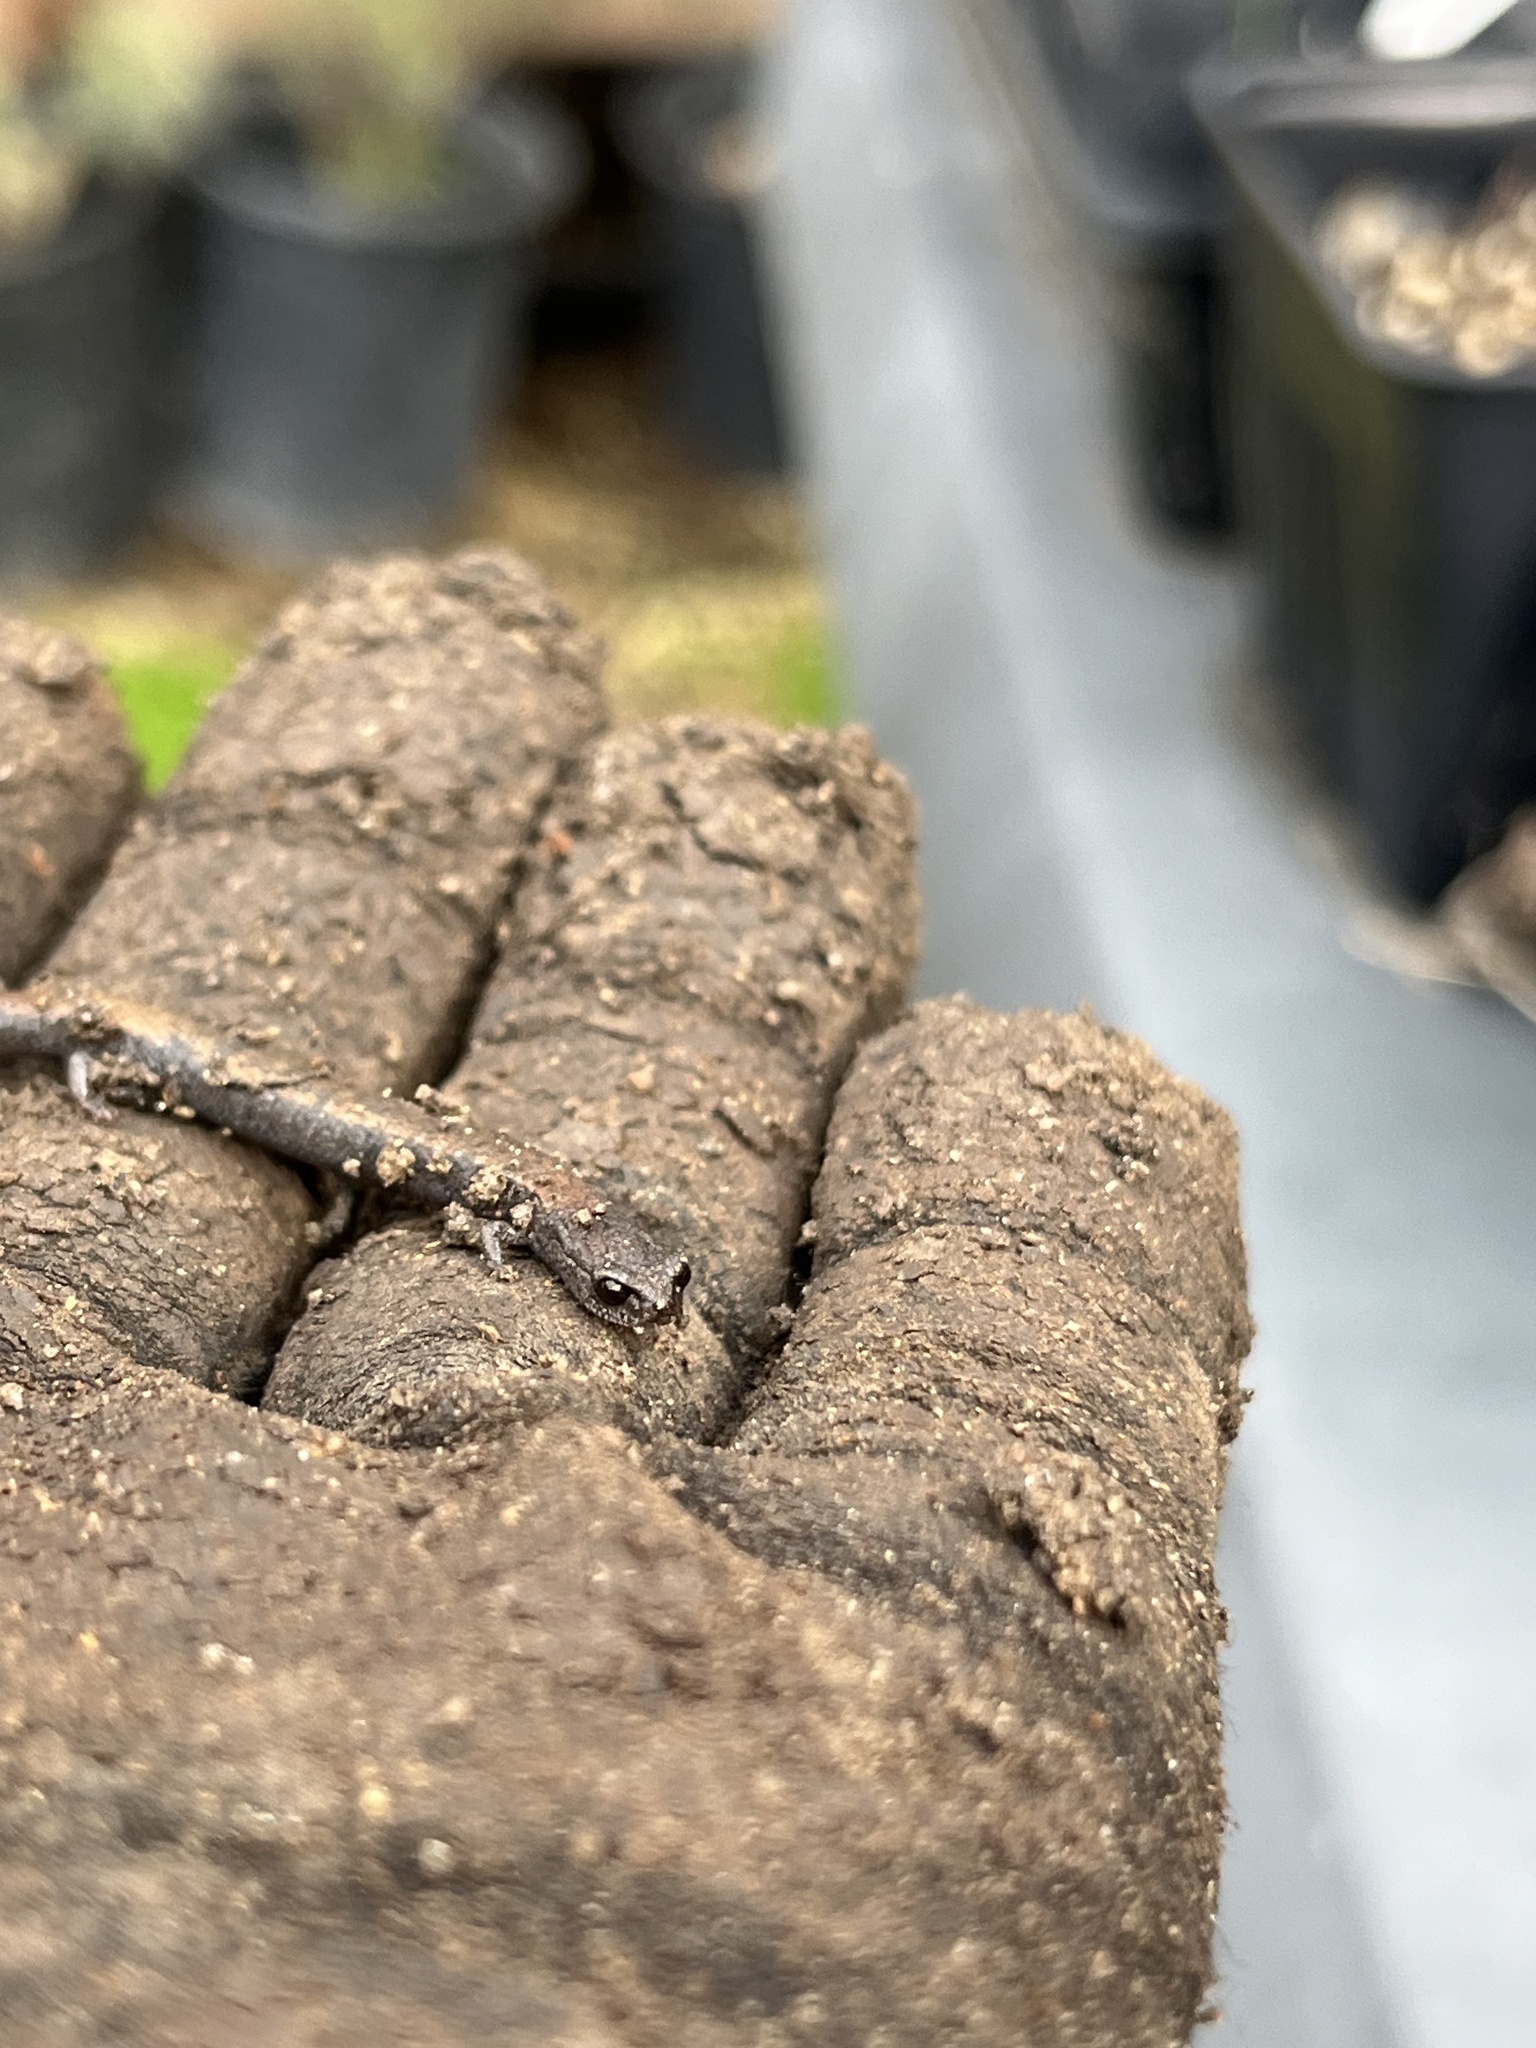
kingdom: Animalia
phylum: Chordata
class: Amphibia
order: Caudata
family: Plethodontidae
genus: Batrachoseps
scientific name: Batrachoseps nigriventris
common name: Black-bellied slender salamander
